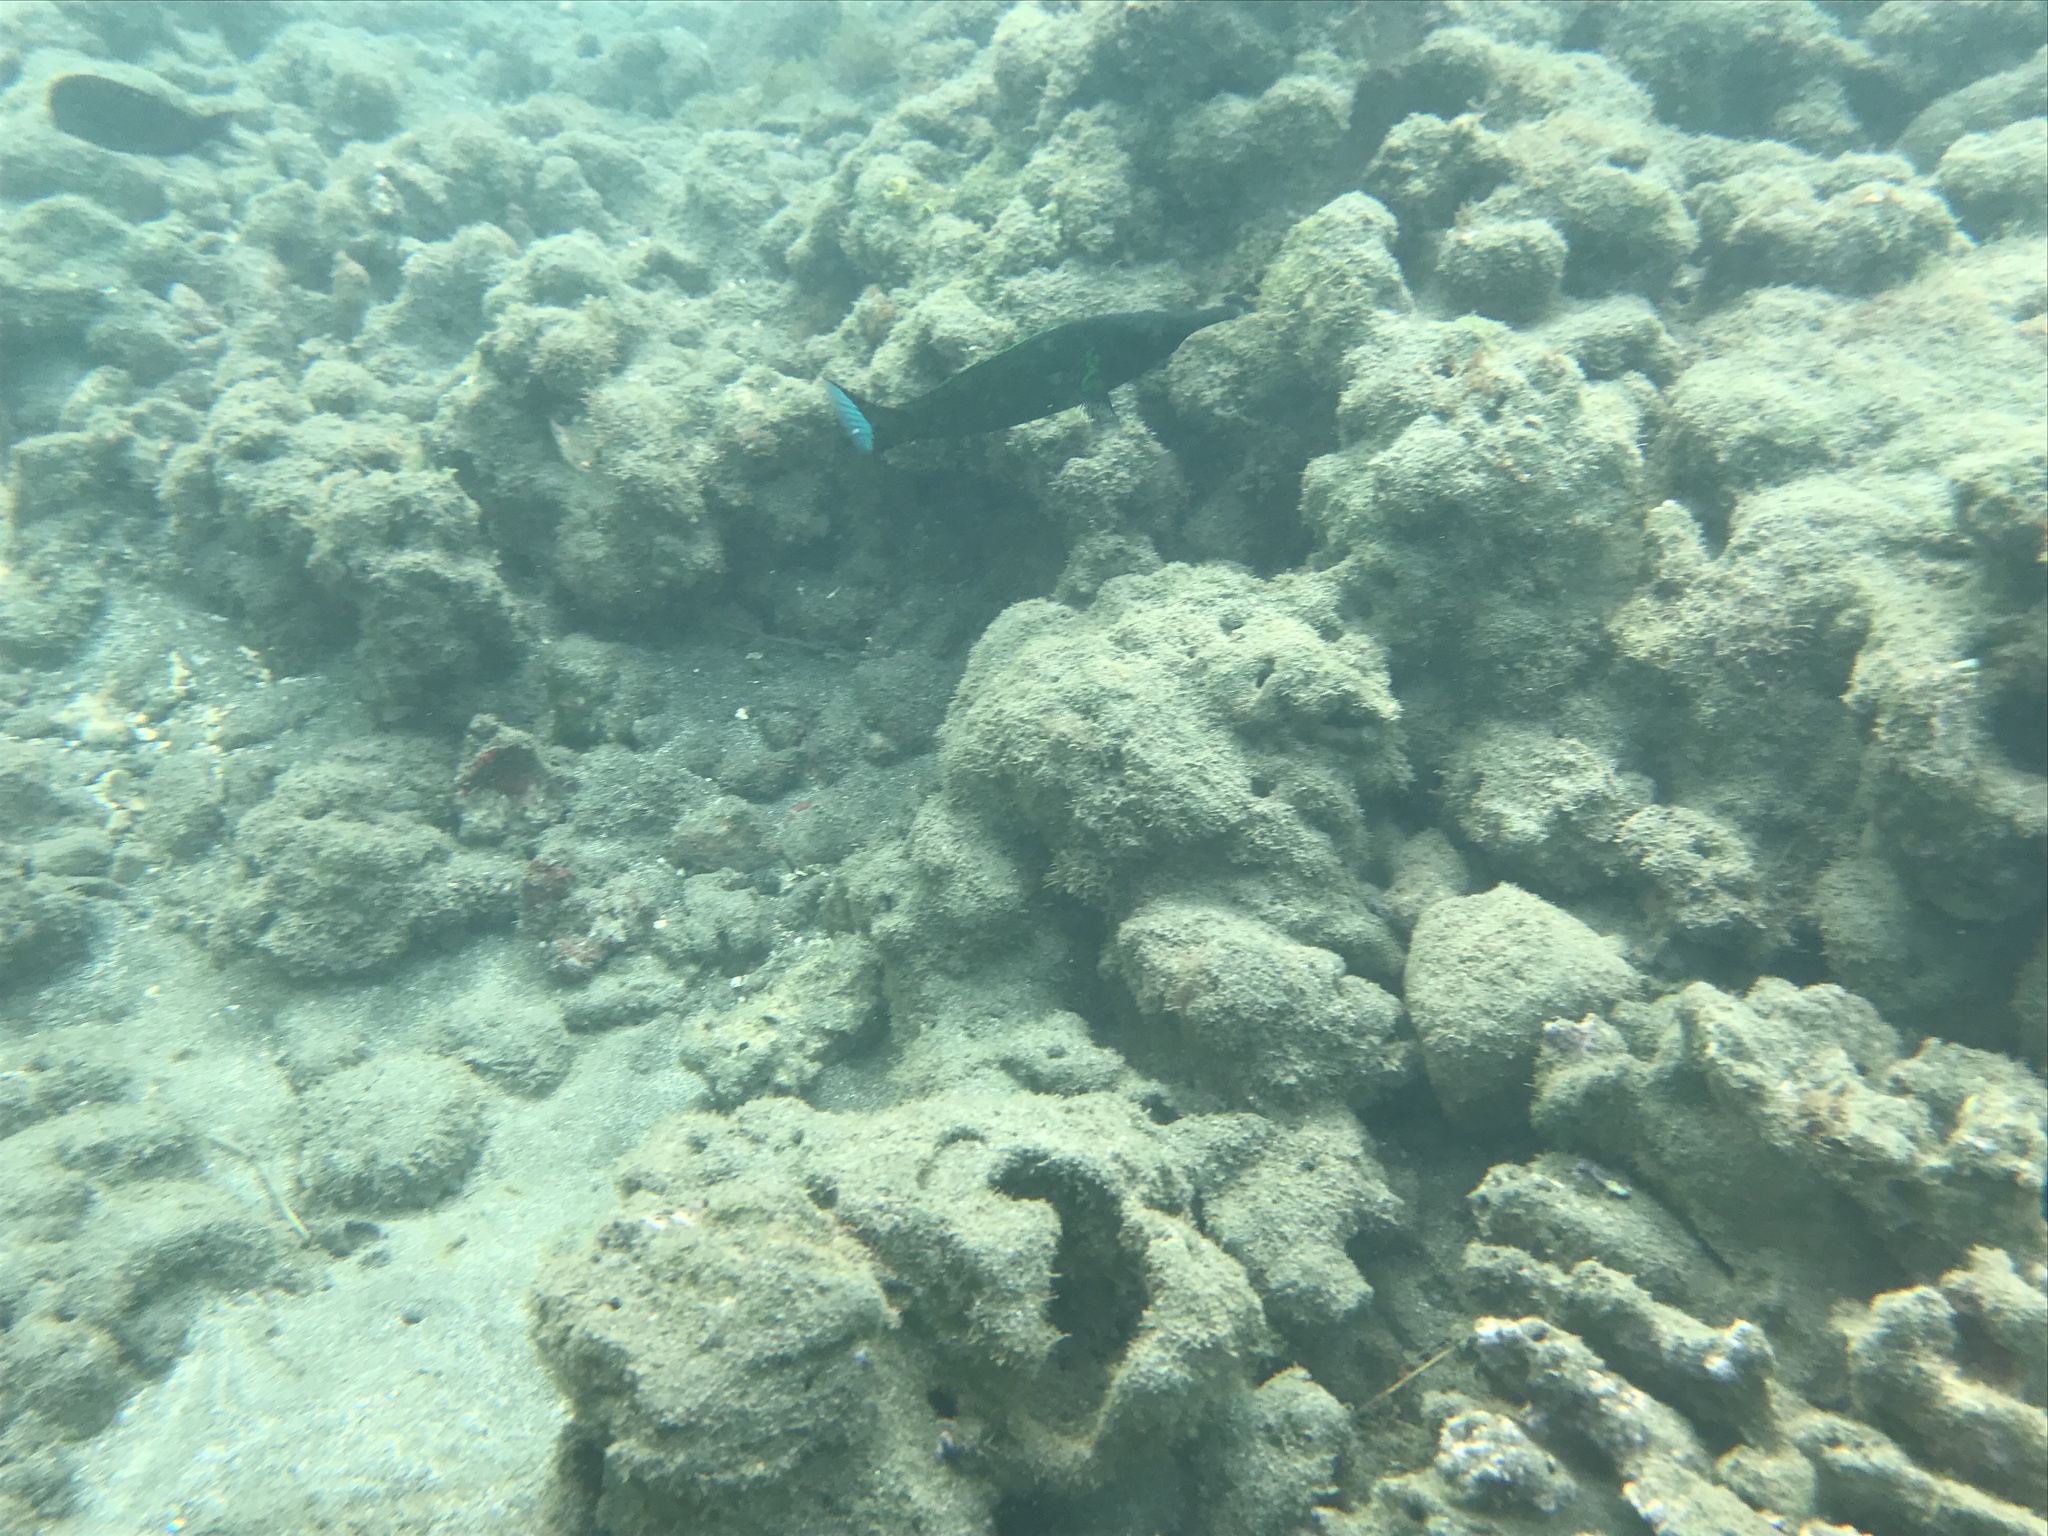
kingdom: Animalia
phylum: Chordata
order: Perciformes
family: Labridae
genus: Gomphosus
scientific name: Gomphosus varius
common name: Bird wrasse
